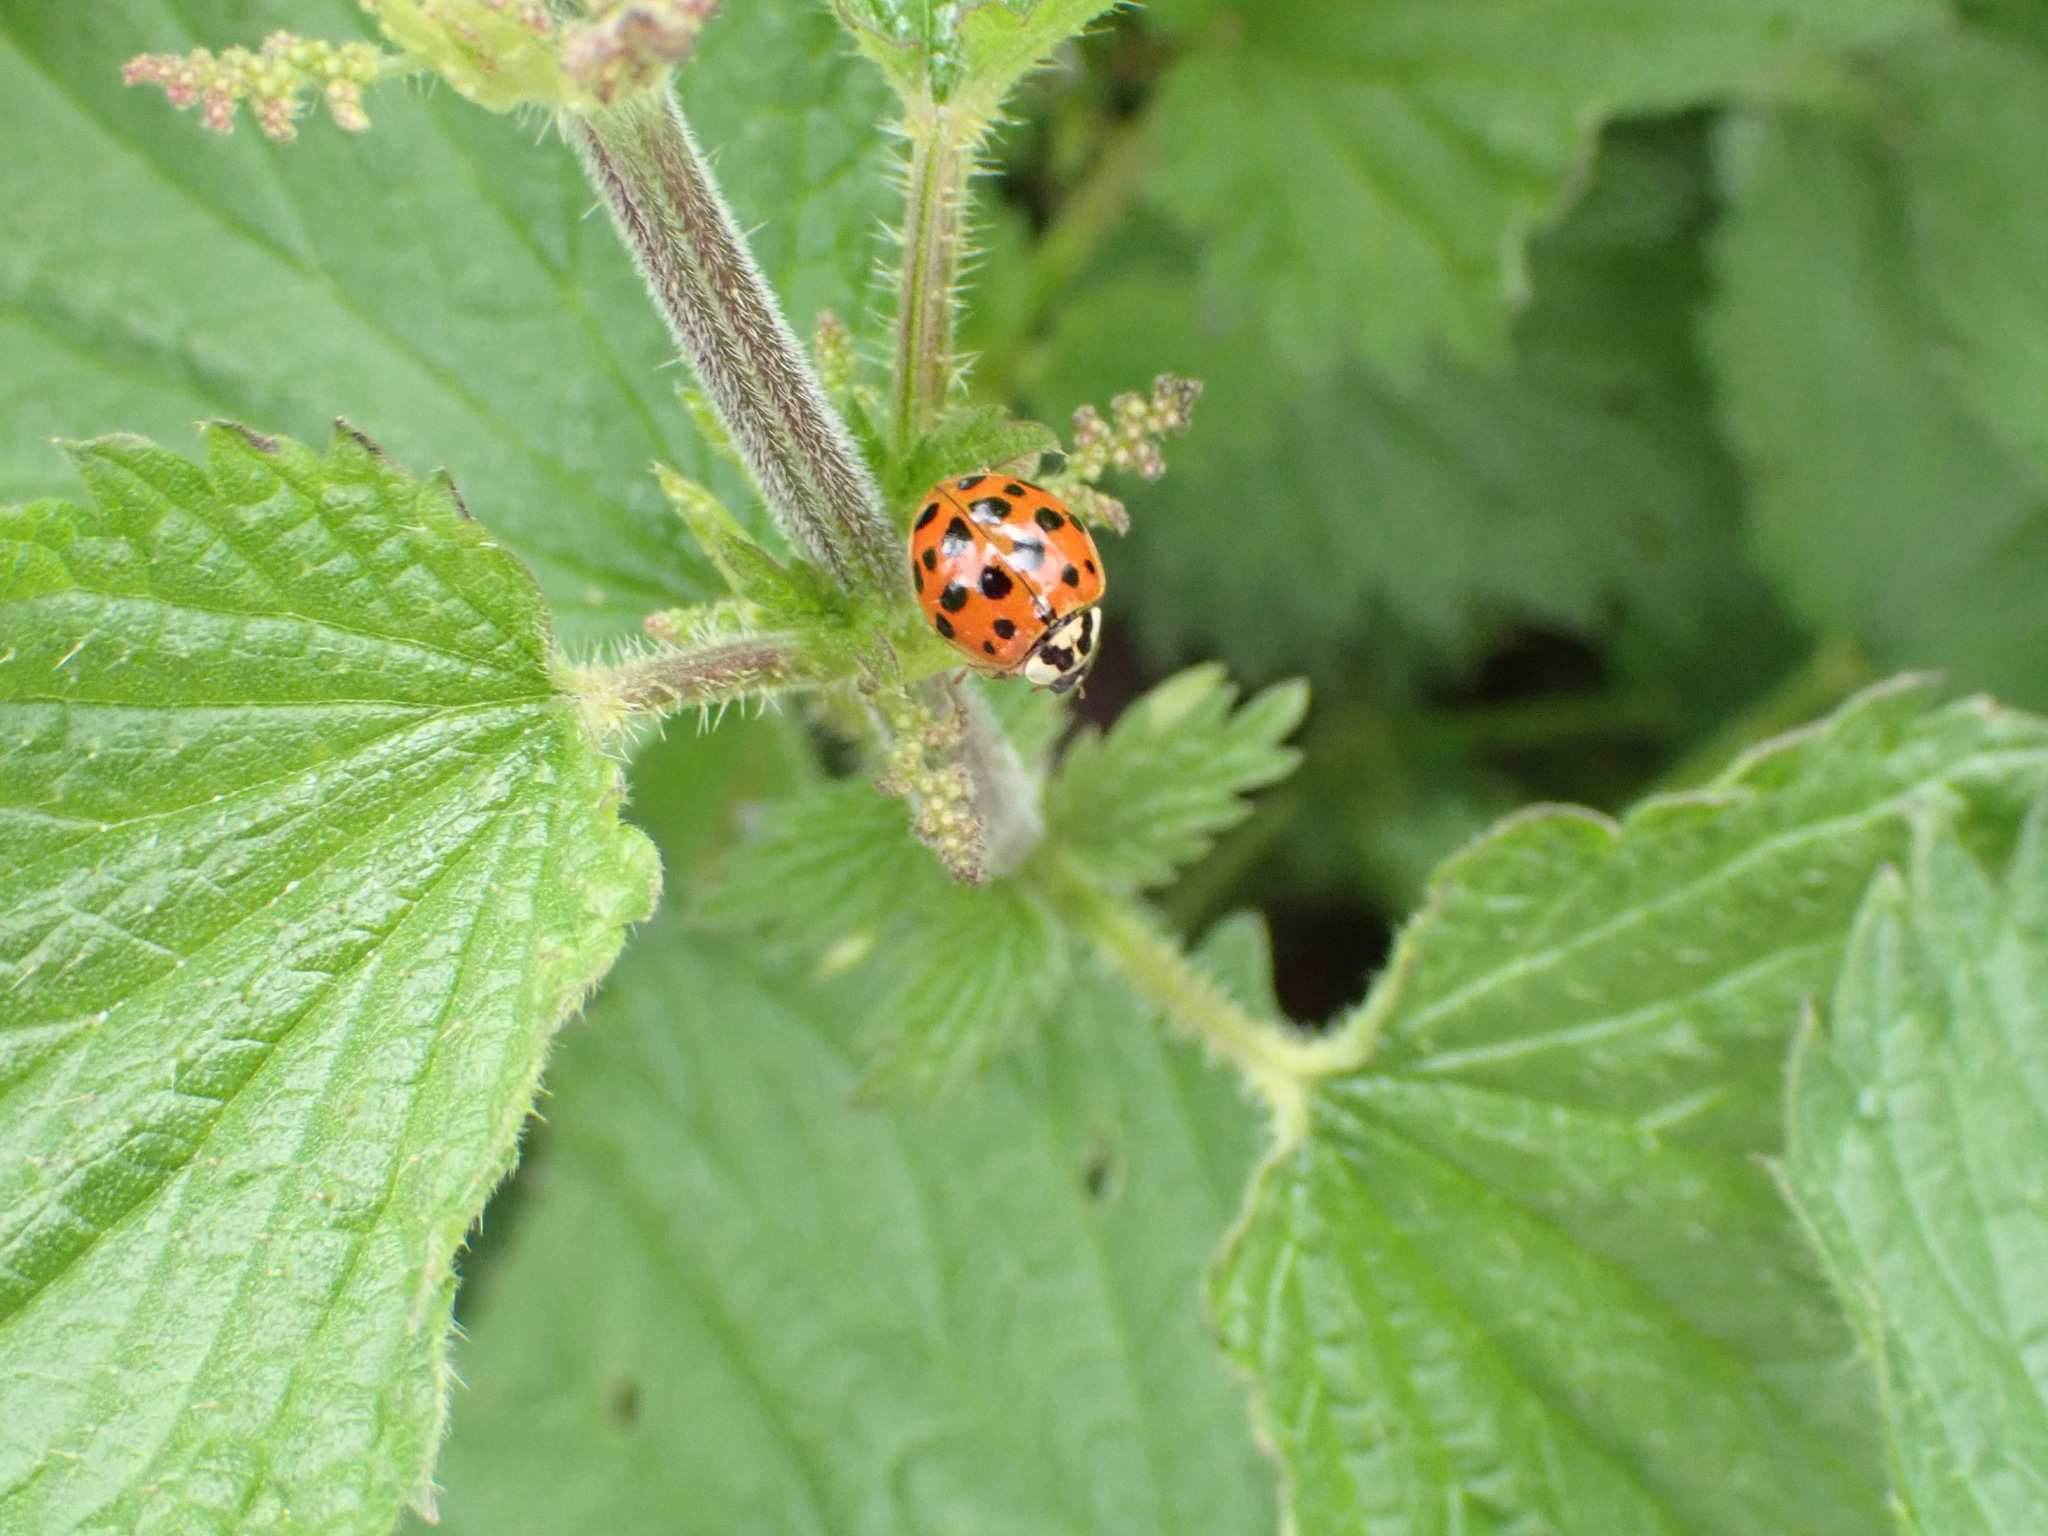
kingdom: Animalia
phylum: Arthropoda
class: Insecta
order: Coleoptera
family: Coccinellidae
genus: Harmonia
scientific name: Harmonia axyridis
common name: Harlequin ladybird
